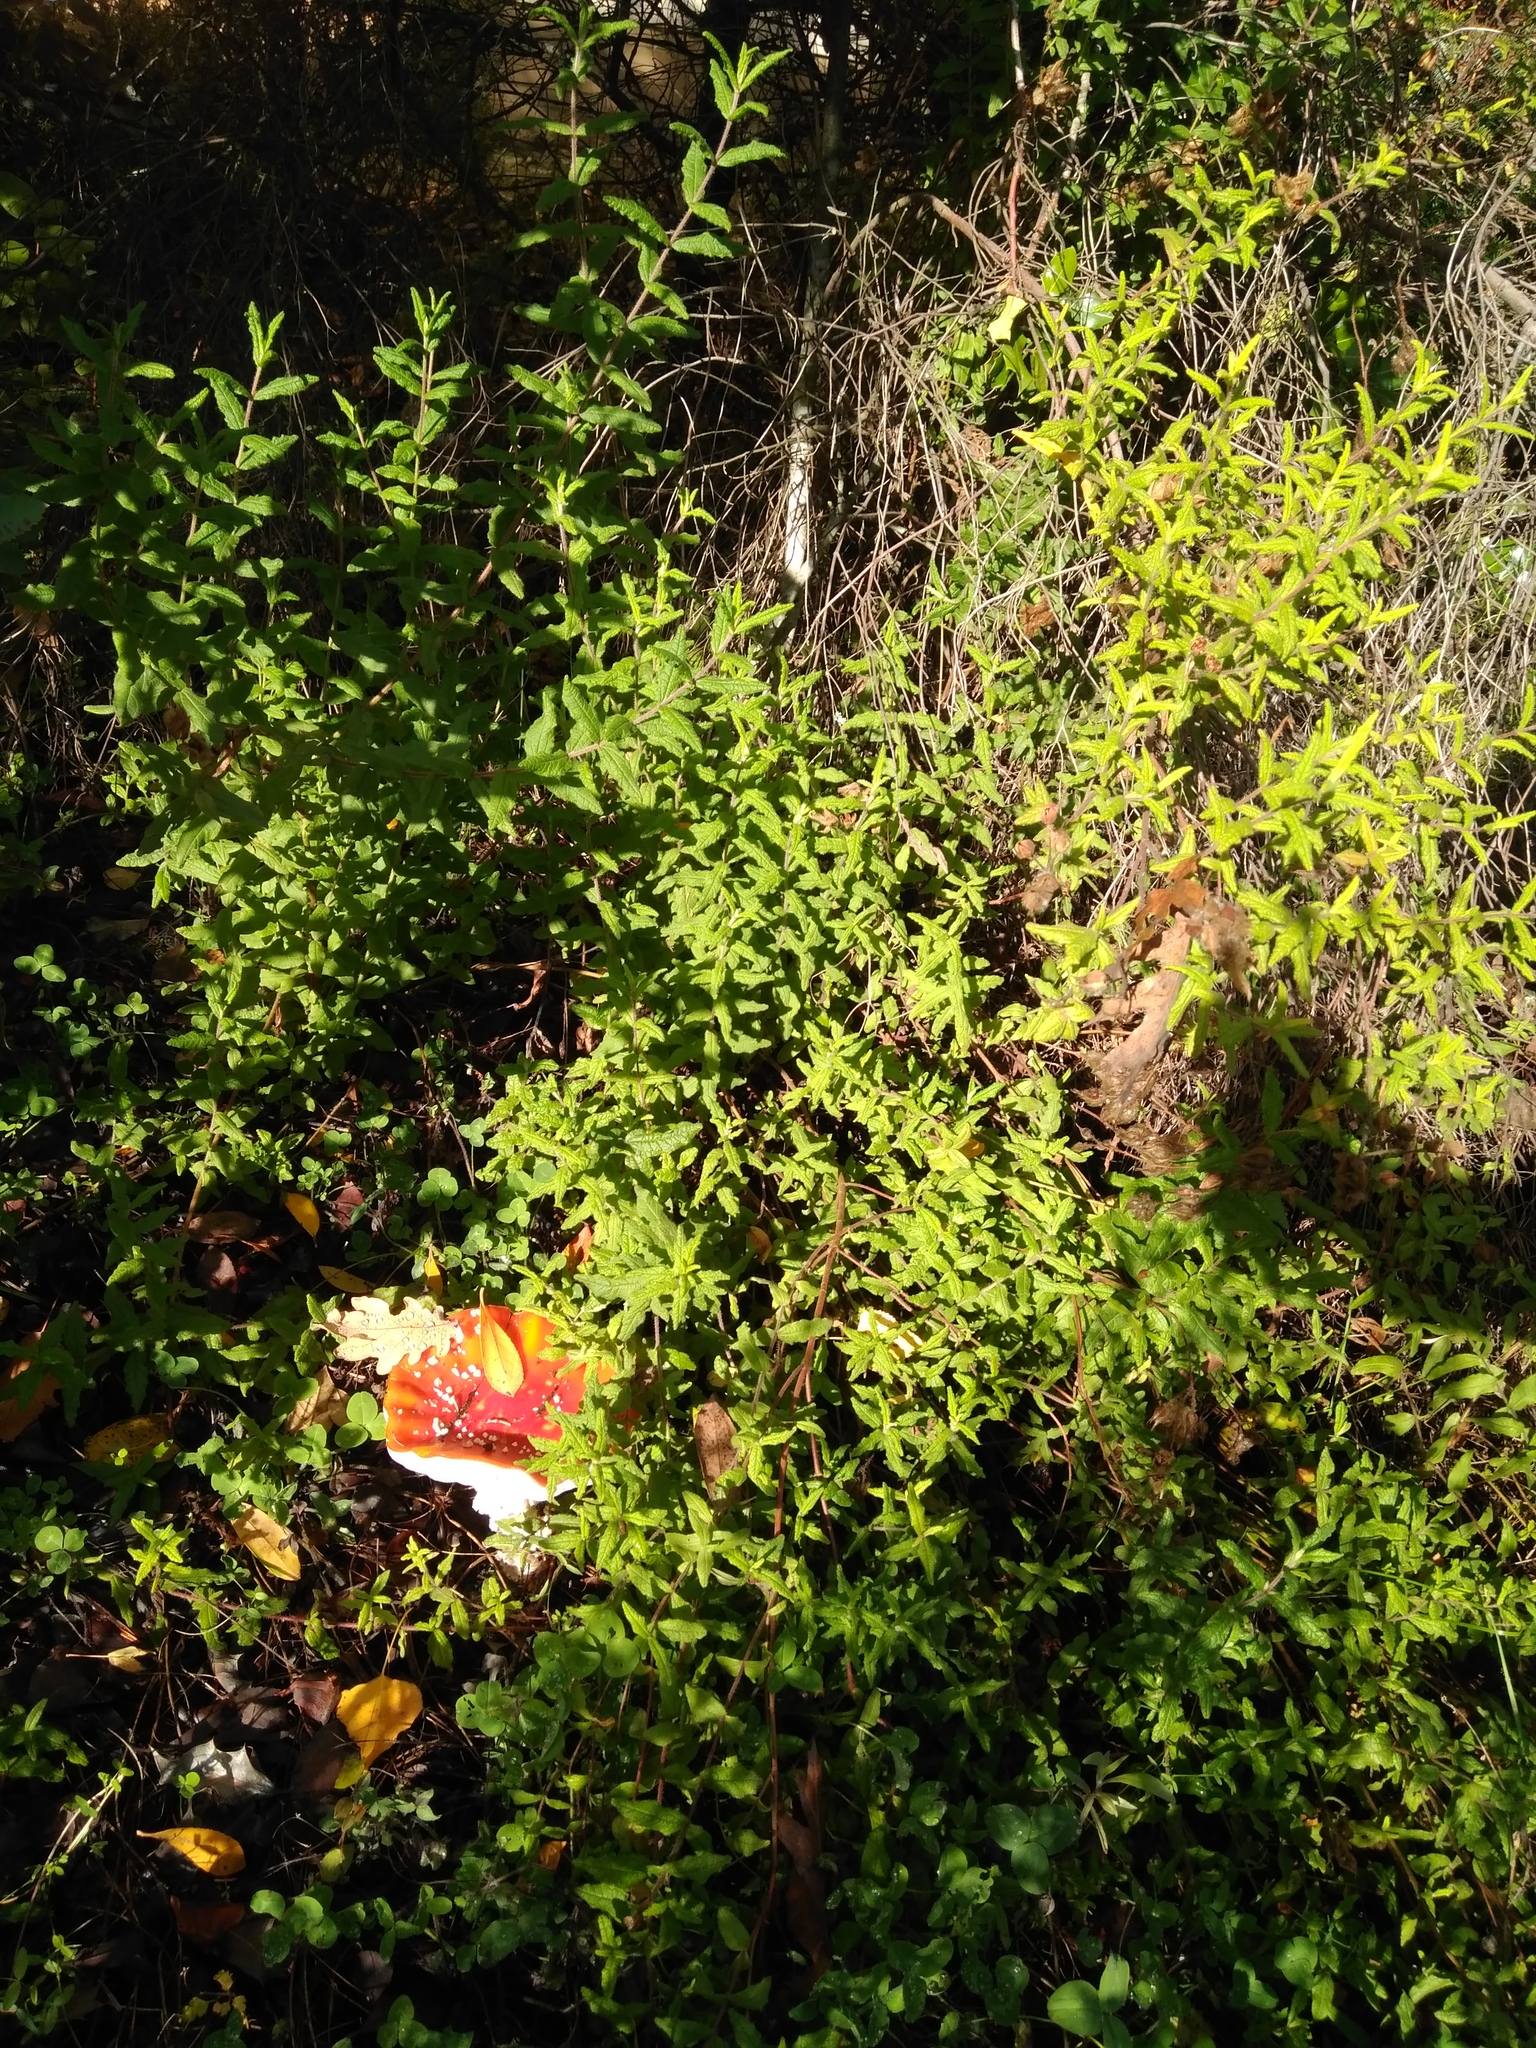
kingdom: Fungi
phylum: Basidiomycota
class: Agaricomycetes
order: Agaricales
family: Amanitaceae
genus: Amanita
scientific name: Amanita muscaria
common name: Fly agaric
